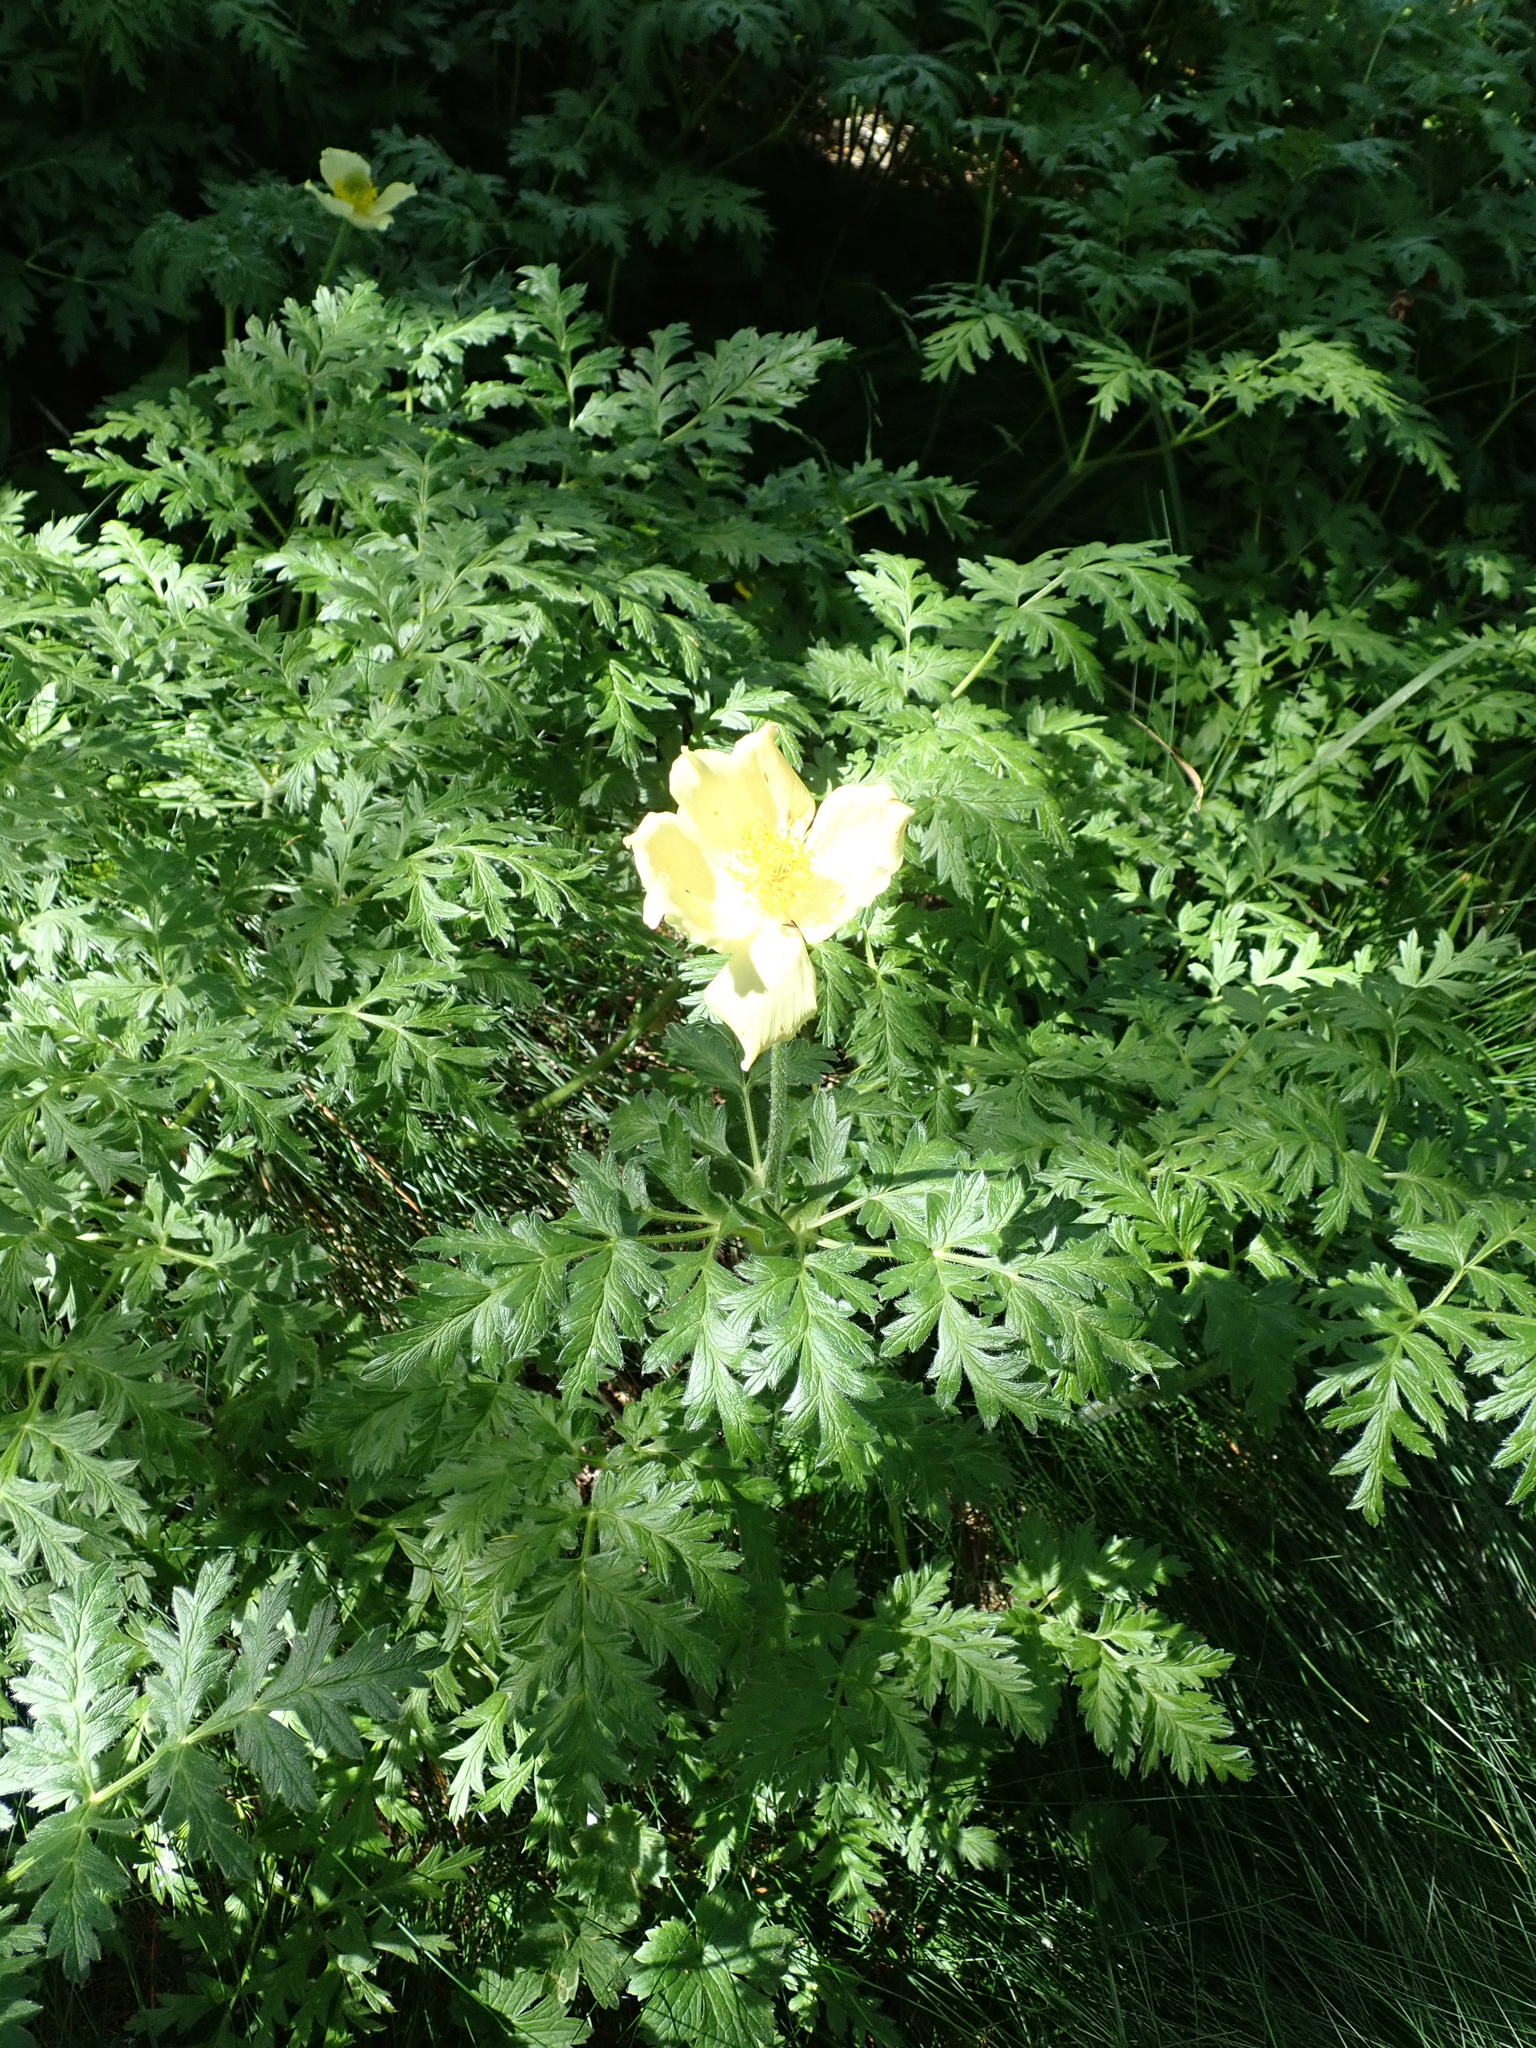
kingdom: Plantae
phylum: Tracheophyta
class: Magnoliopsida
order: Ranunculales
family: Ranunculaceae
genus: Pulsatilla
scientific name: Pulsatilla alpina
